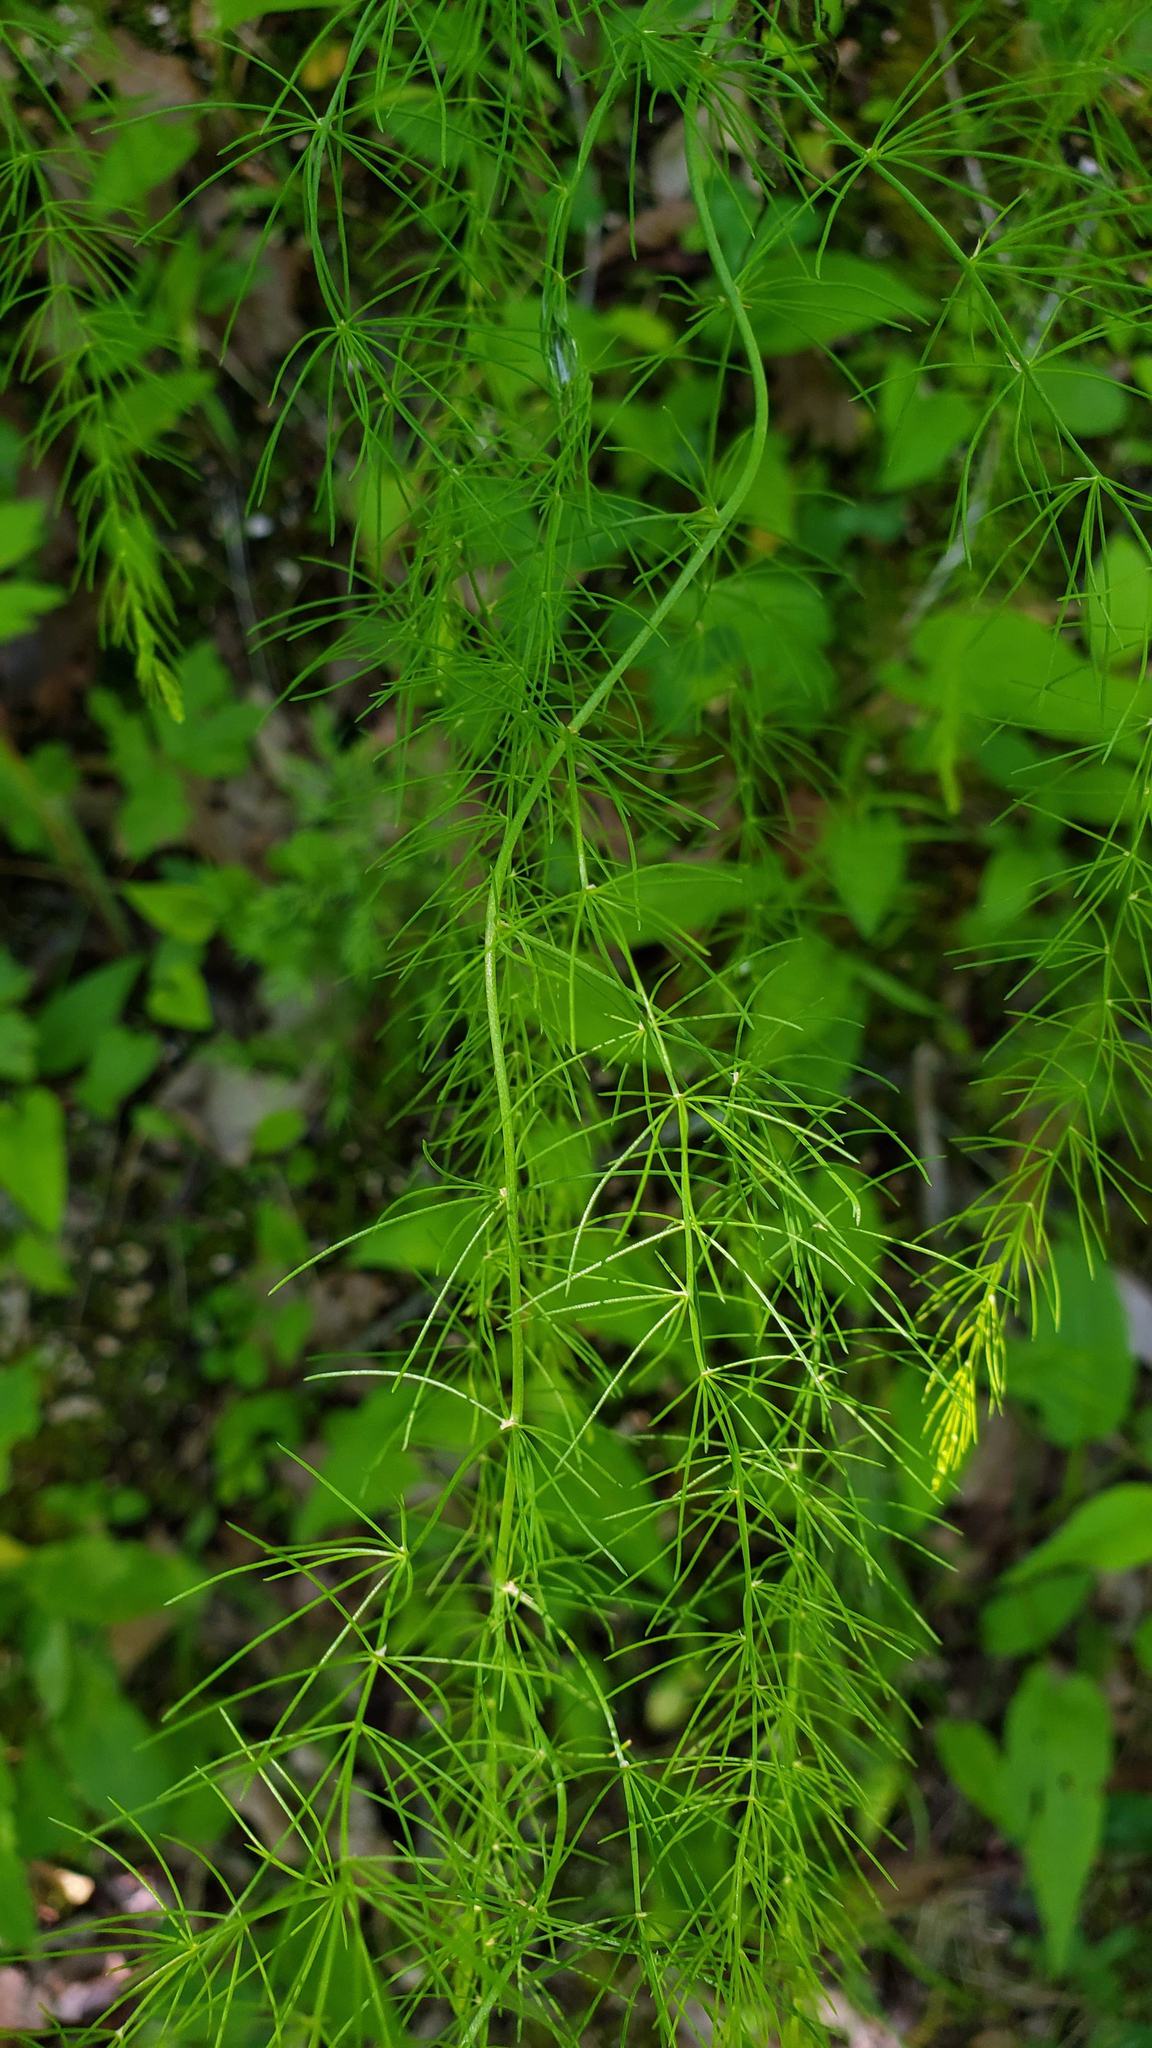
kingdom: Plantae
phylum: Tracheophyta
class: Liliopsida
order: Asparagales
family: Asparagaceae
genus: Asparagus
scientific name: Asparagus officinalis
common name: Garden asparagus
